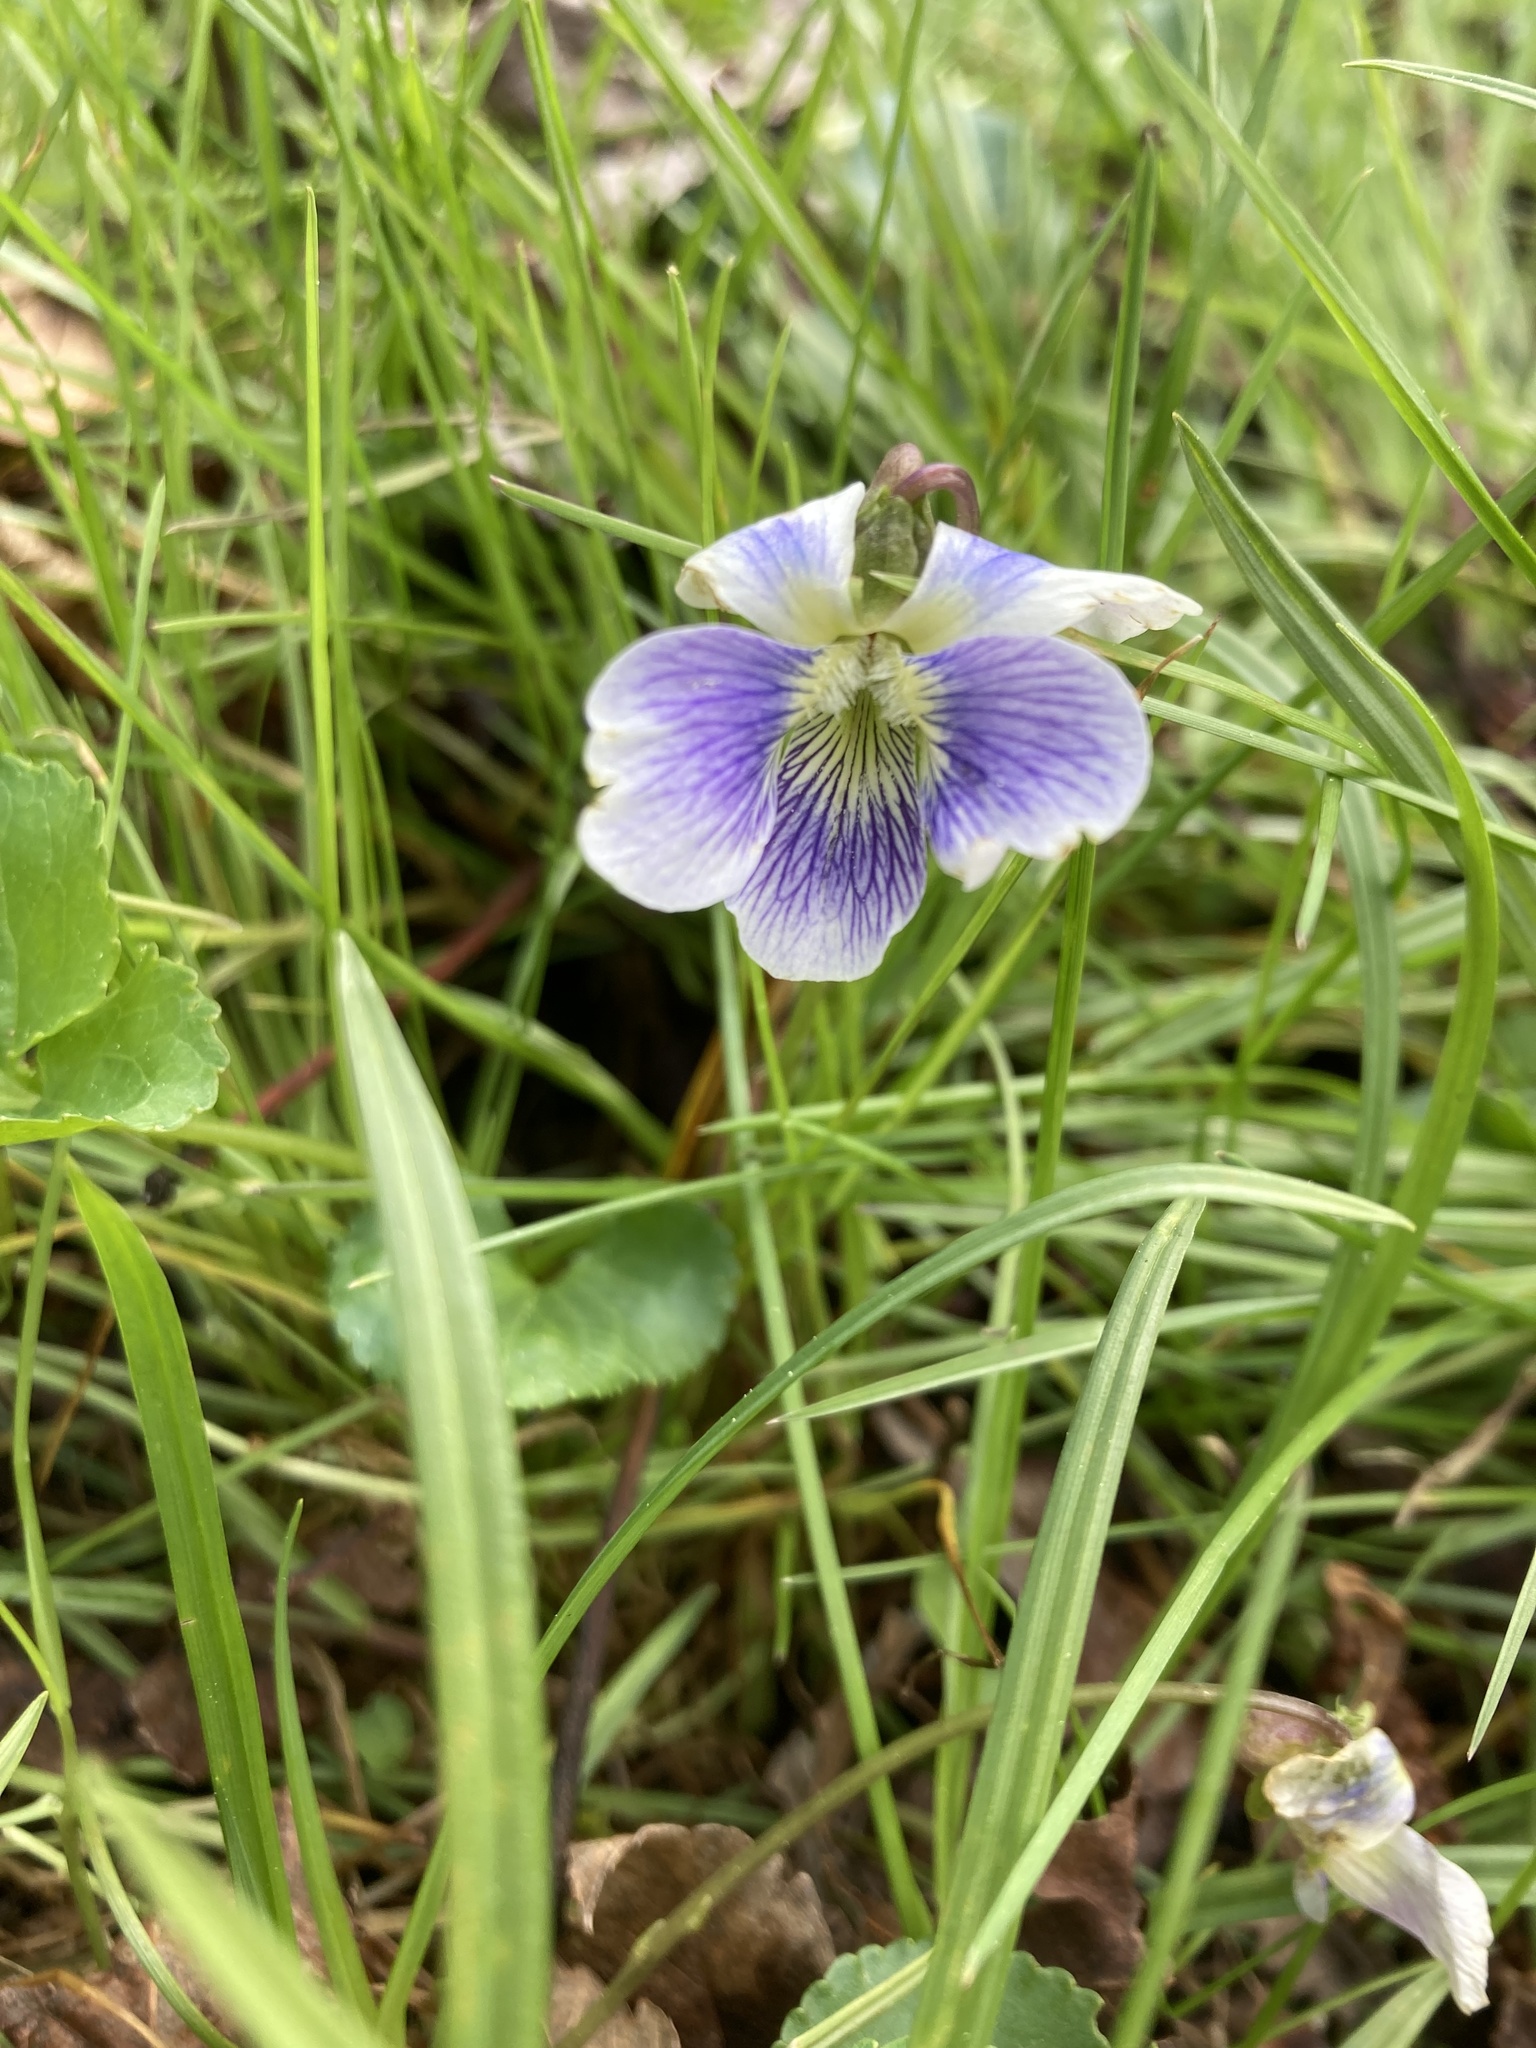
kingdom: Plantae
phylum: Tracheophyta
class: Magnoliopsida
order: Malpighiales
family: Violaceae
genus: Viola
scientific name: Viola sororia
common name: Dooryard violet
